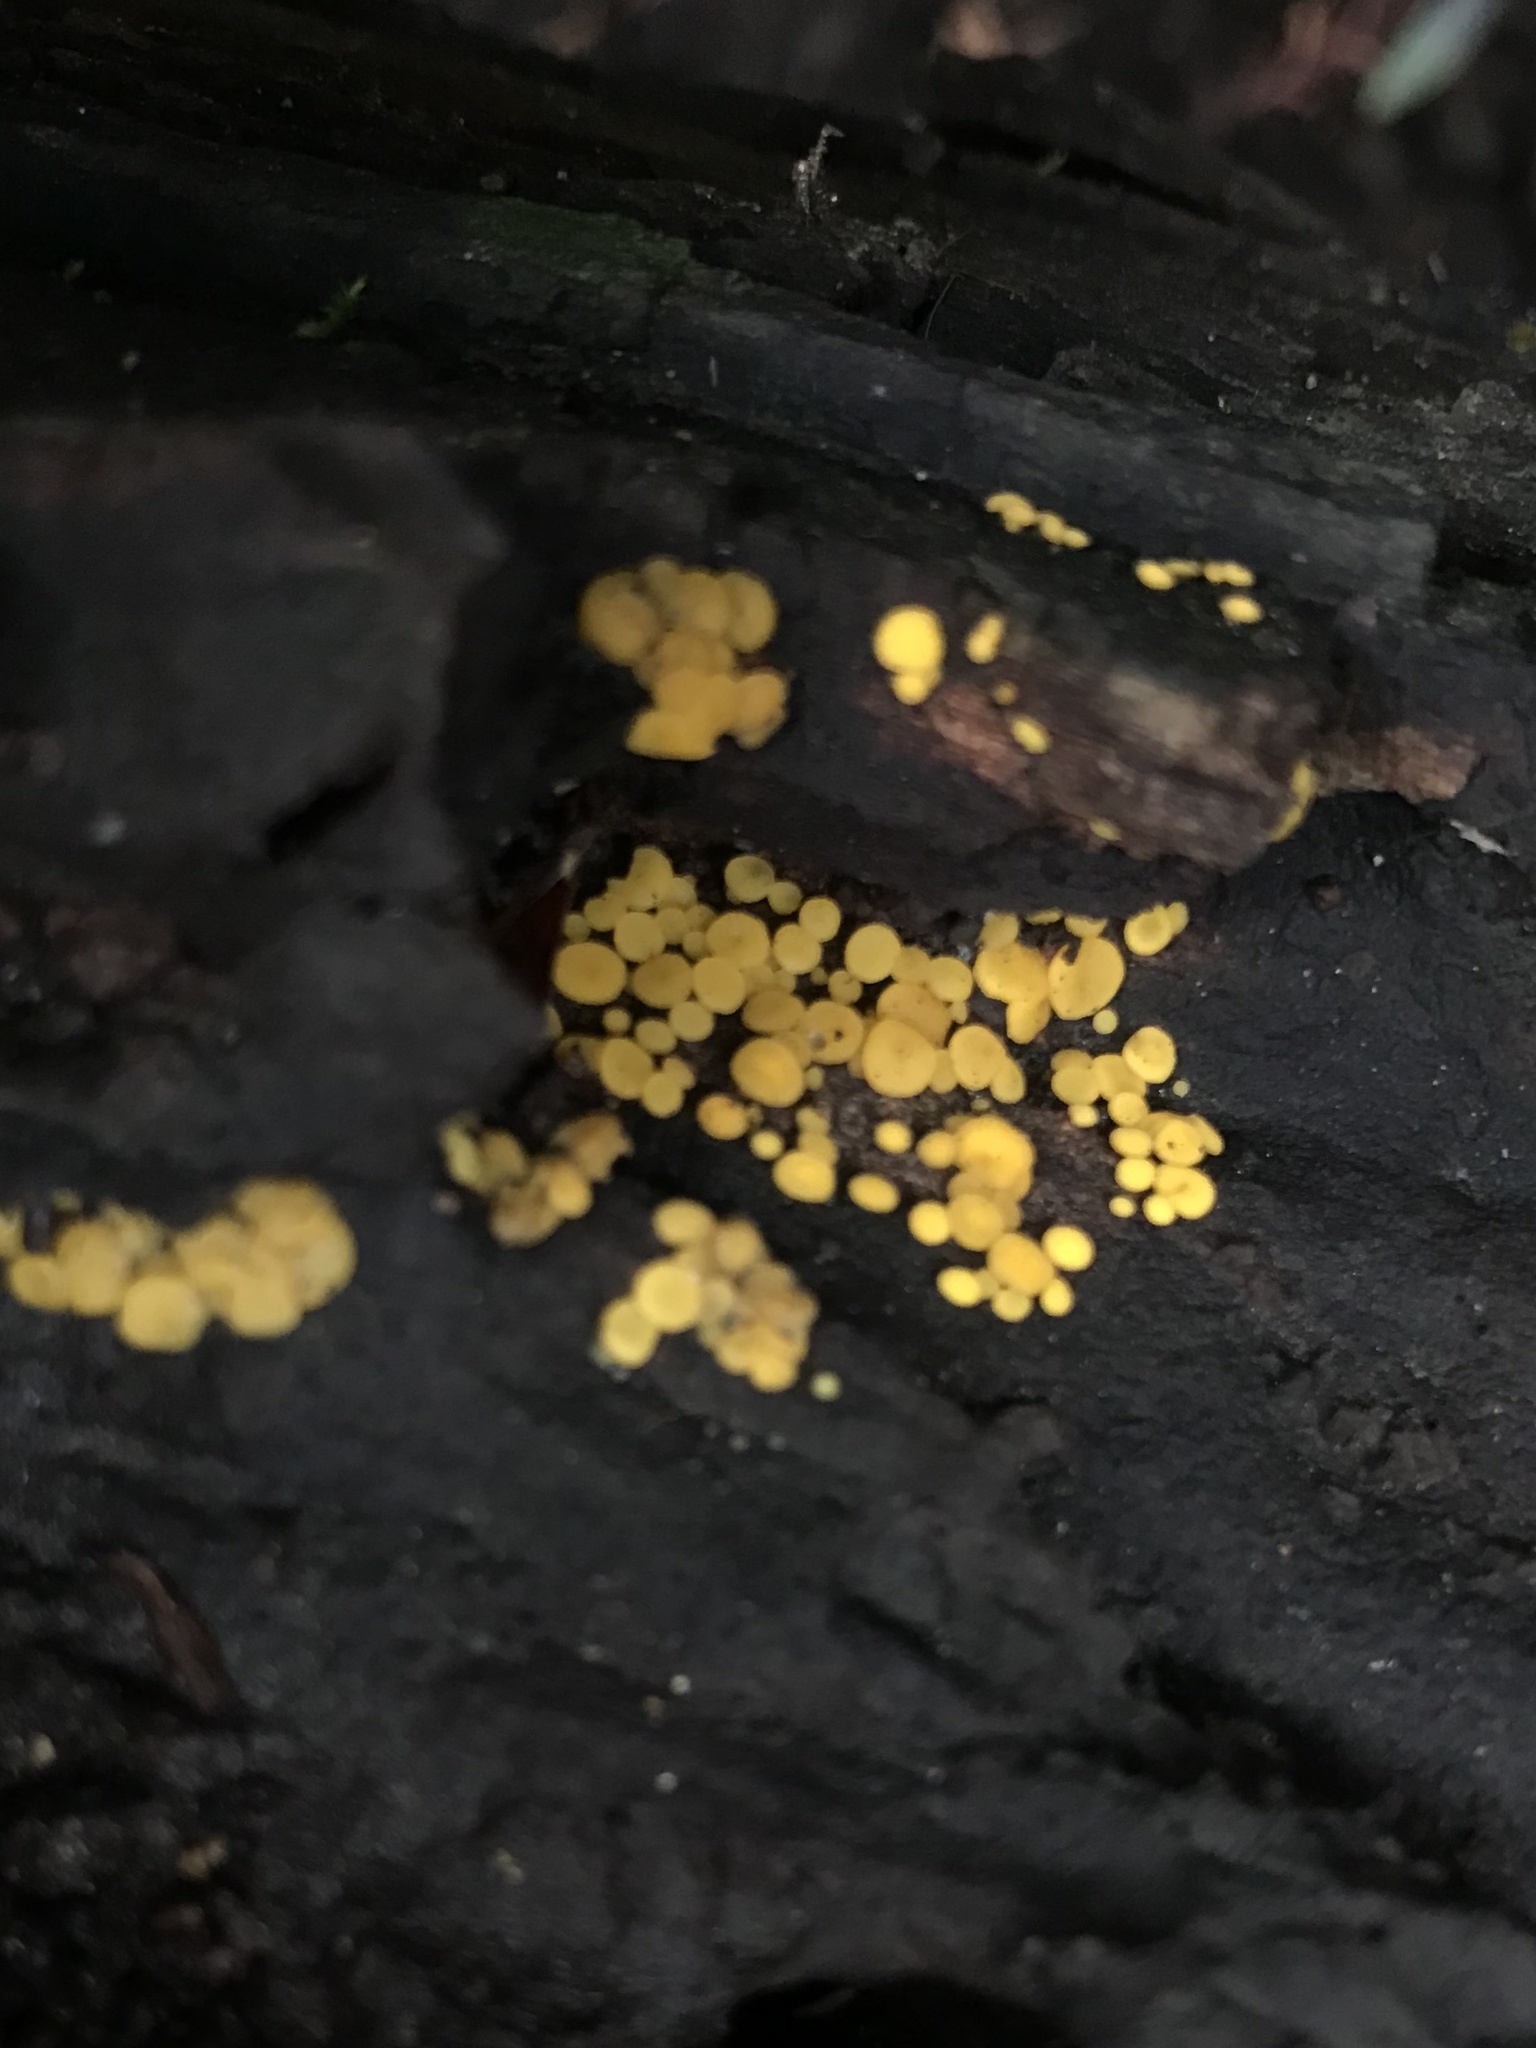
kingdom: Fungi
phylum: Ascomycota
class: Leotiomycetes
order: Helotiales
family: Pezizellaceae
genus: Calycina
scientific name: Calycina citrina
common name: Yellow fairy cups
